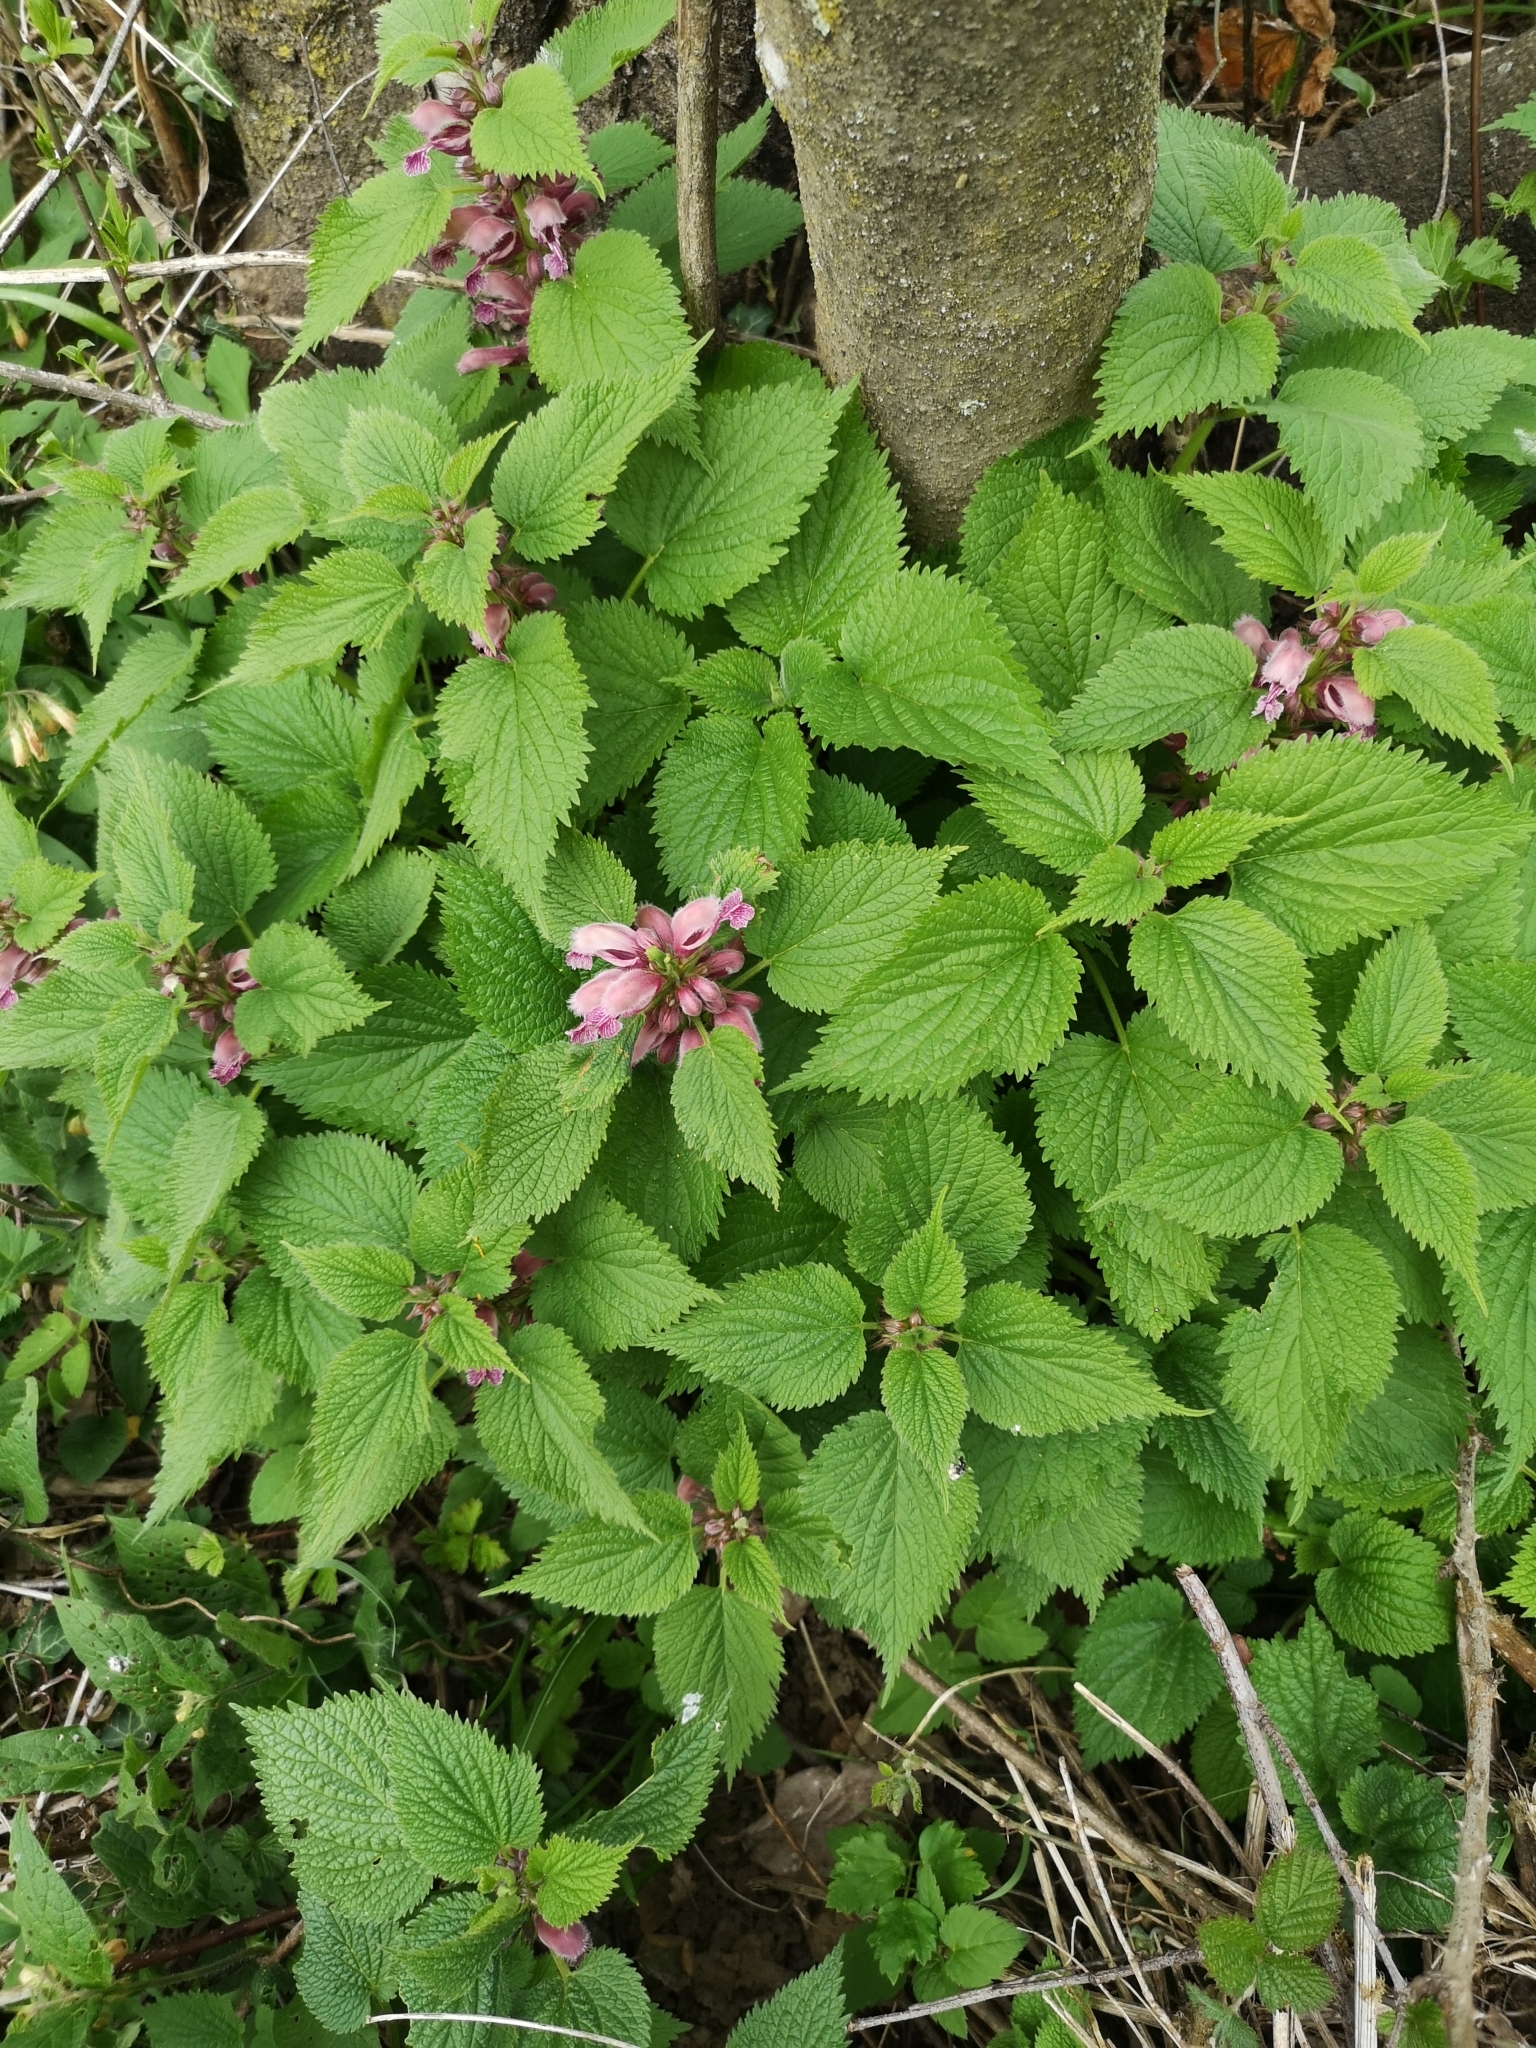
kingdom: Plantae
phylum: Tracheophyta
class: Magnoliopsida
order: Lamiales
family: Lamiaceae
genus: Lamium
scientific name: Lamium orvala
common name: Balm-leaved archangel
